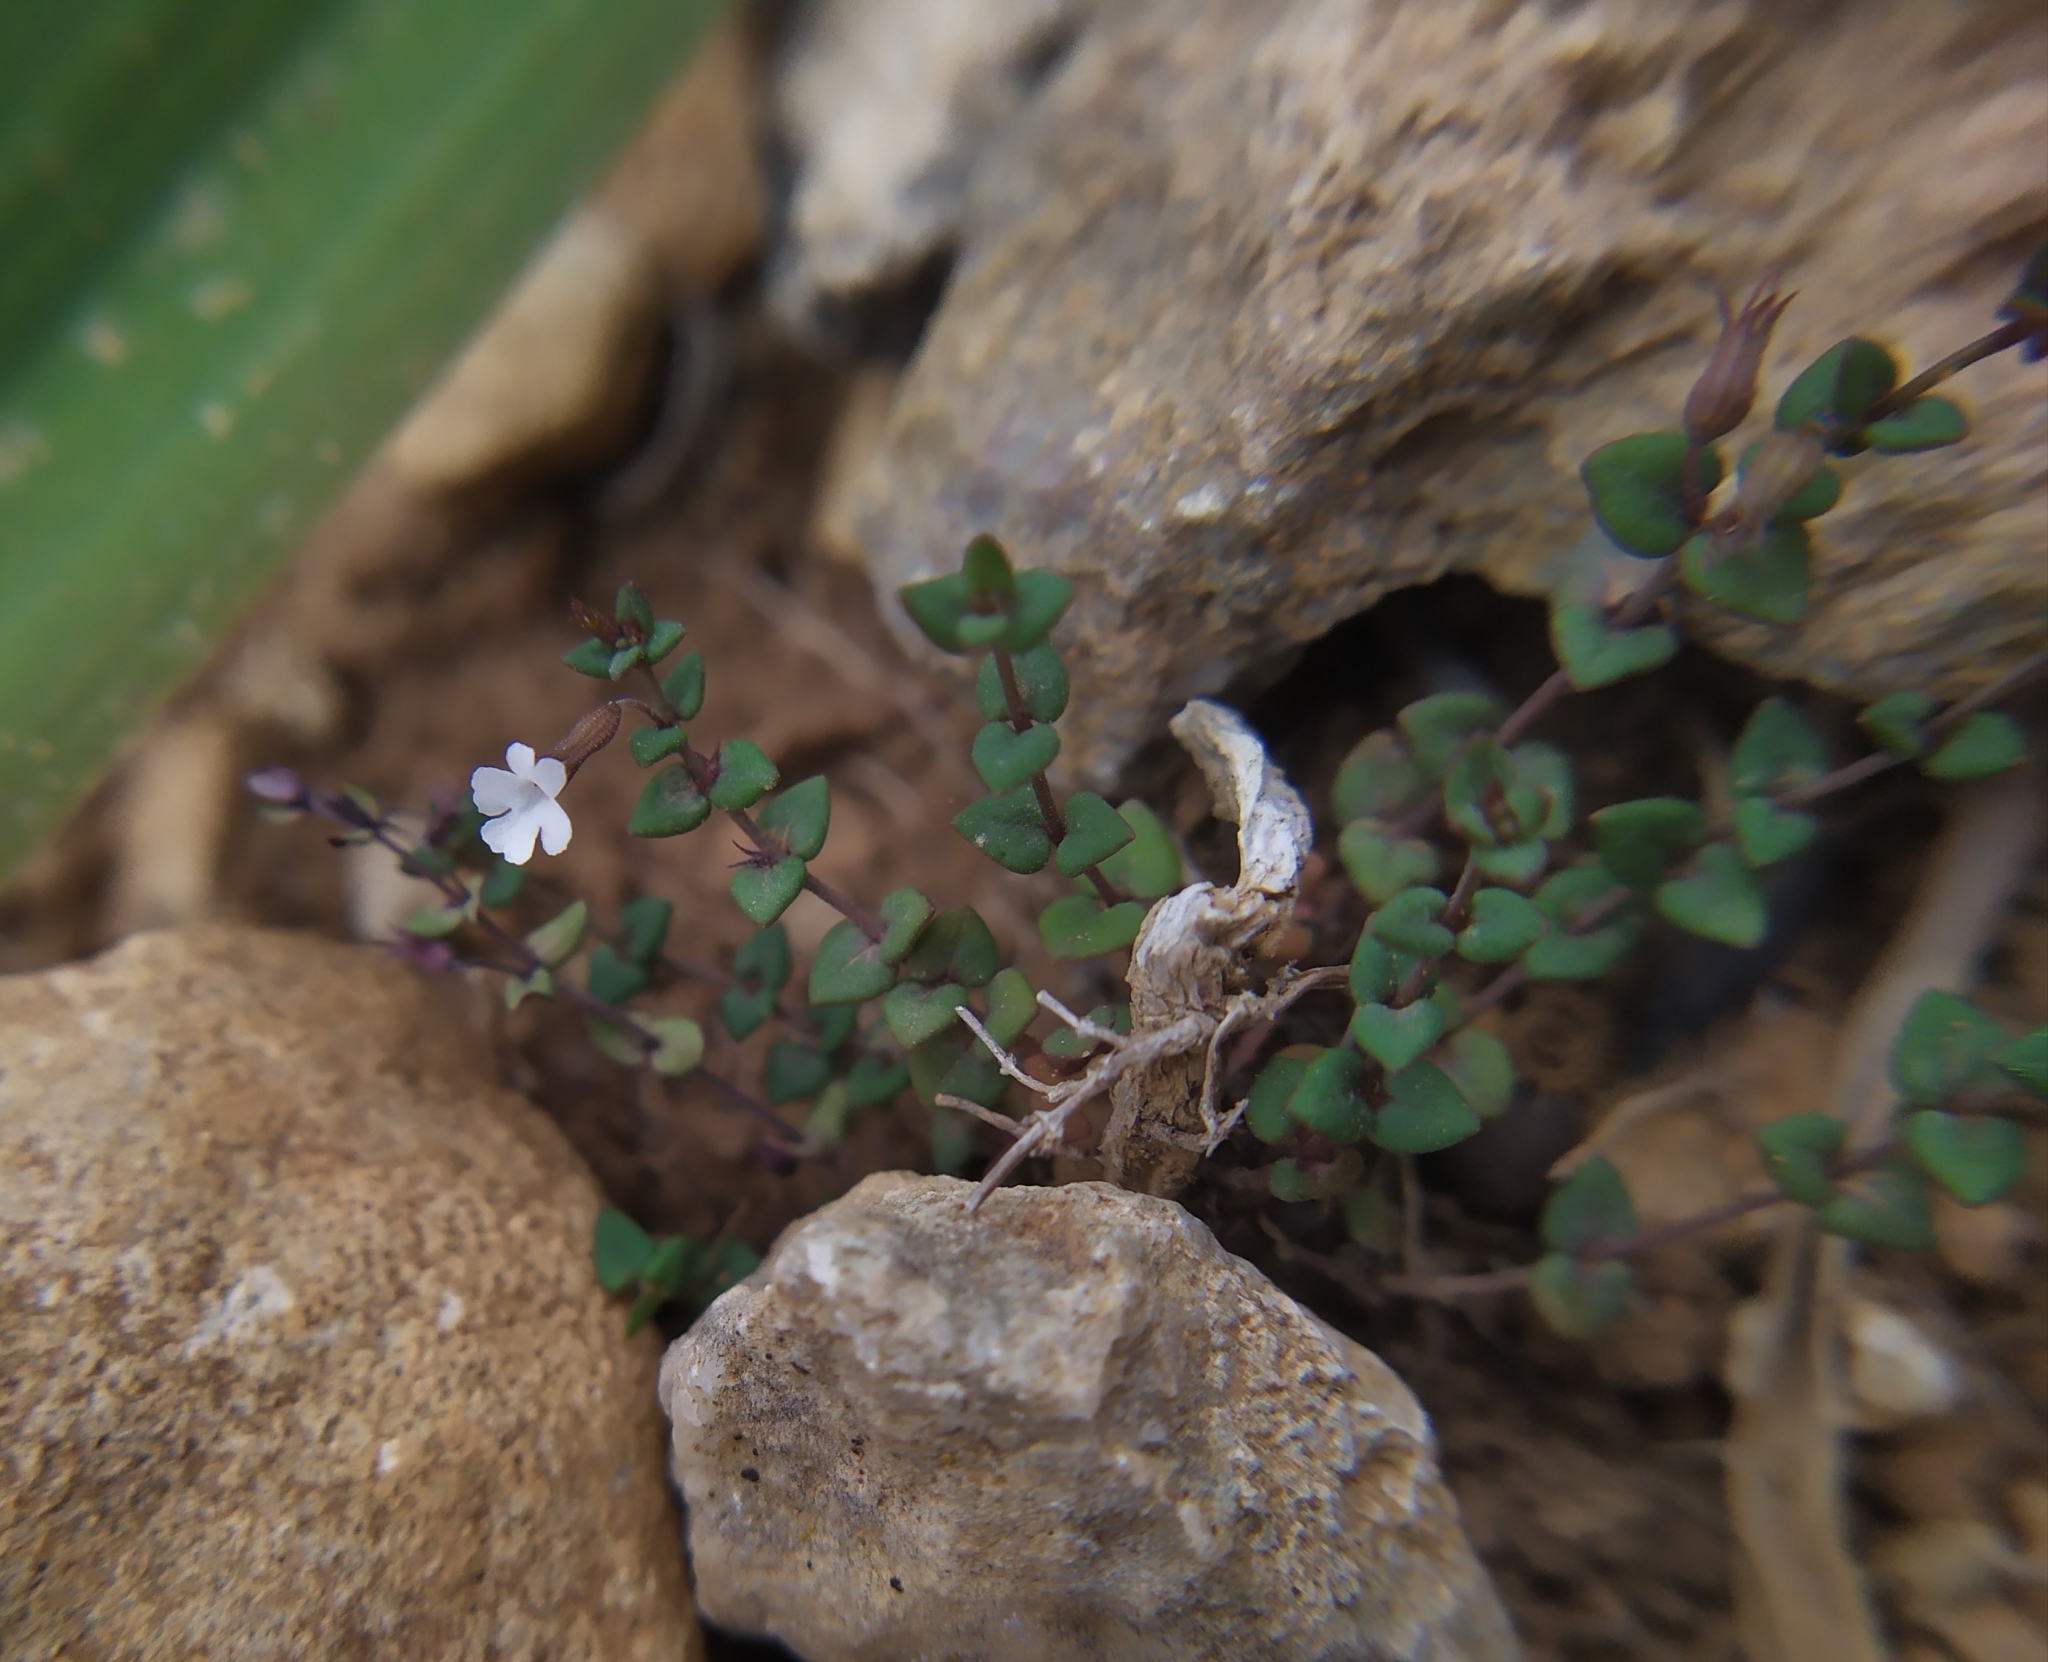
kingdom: Plantae
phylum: Tracheophyta
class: Magnoliopsida
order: Lamiales
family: Lamiaceae
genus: Micromeria
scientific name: Micromeria filiformis
